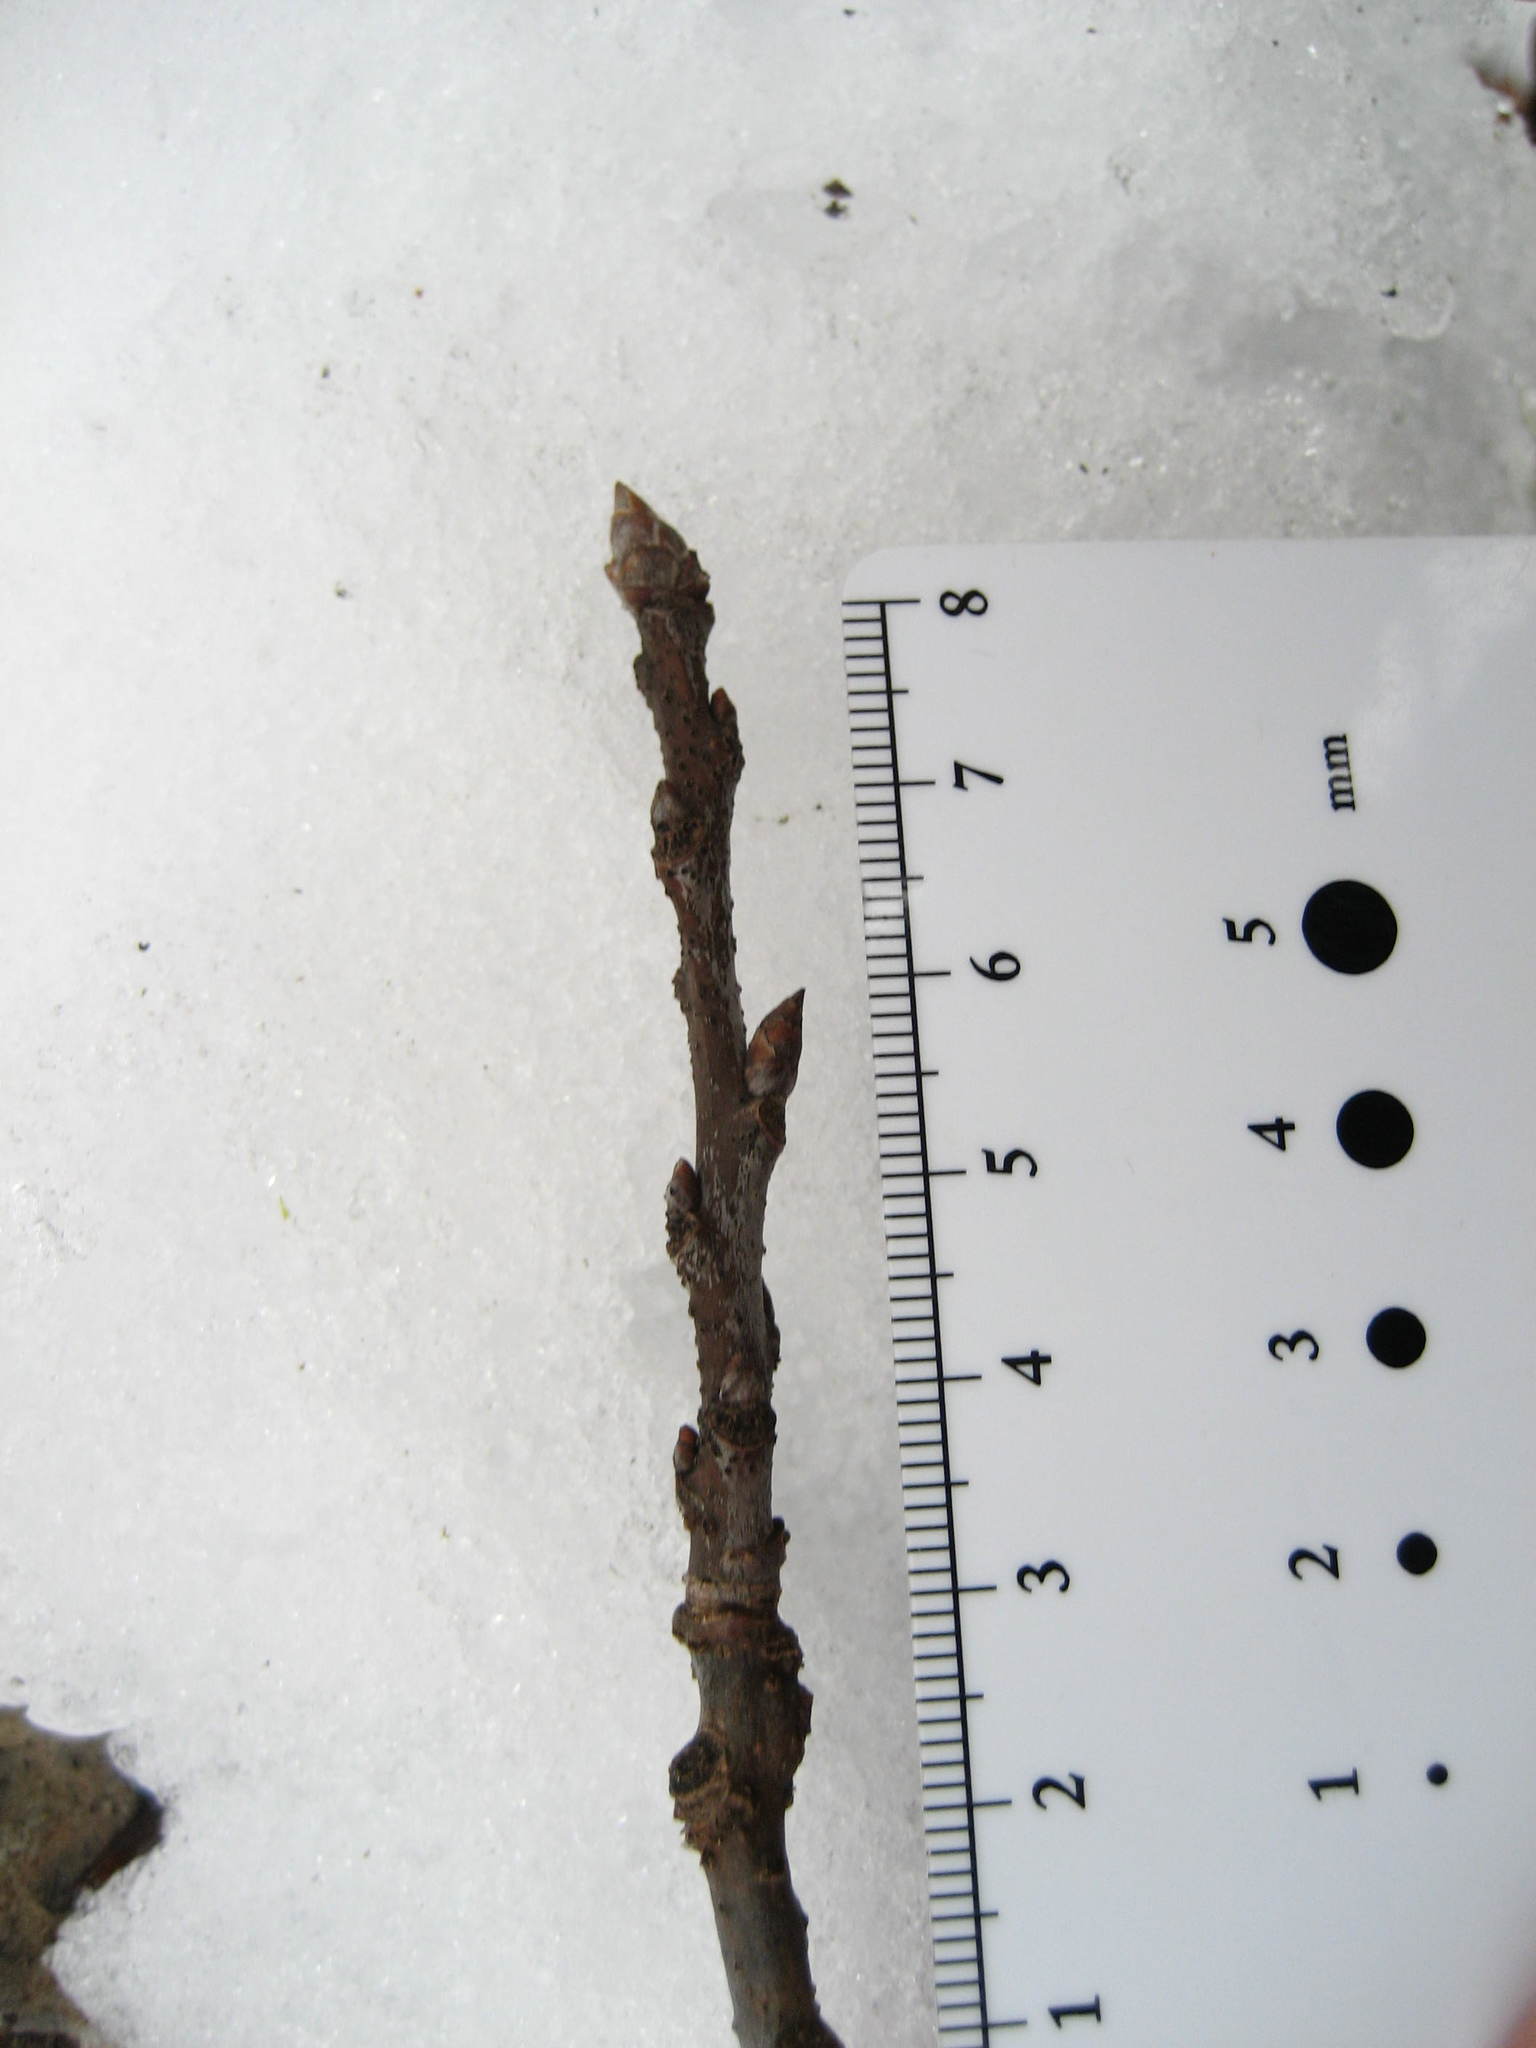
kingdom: Plantae
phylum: Tracheophyta
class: Magnoliopsida
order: Malpighiales
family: Salicaceae
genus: Populus
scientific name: Populus grandidentata
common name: Bigtooth aspen
